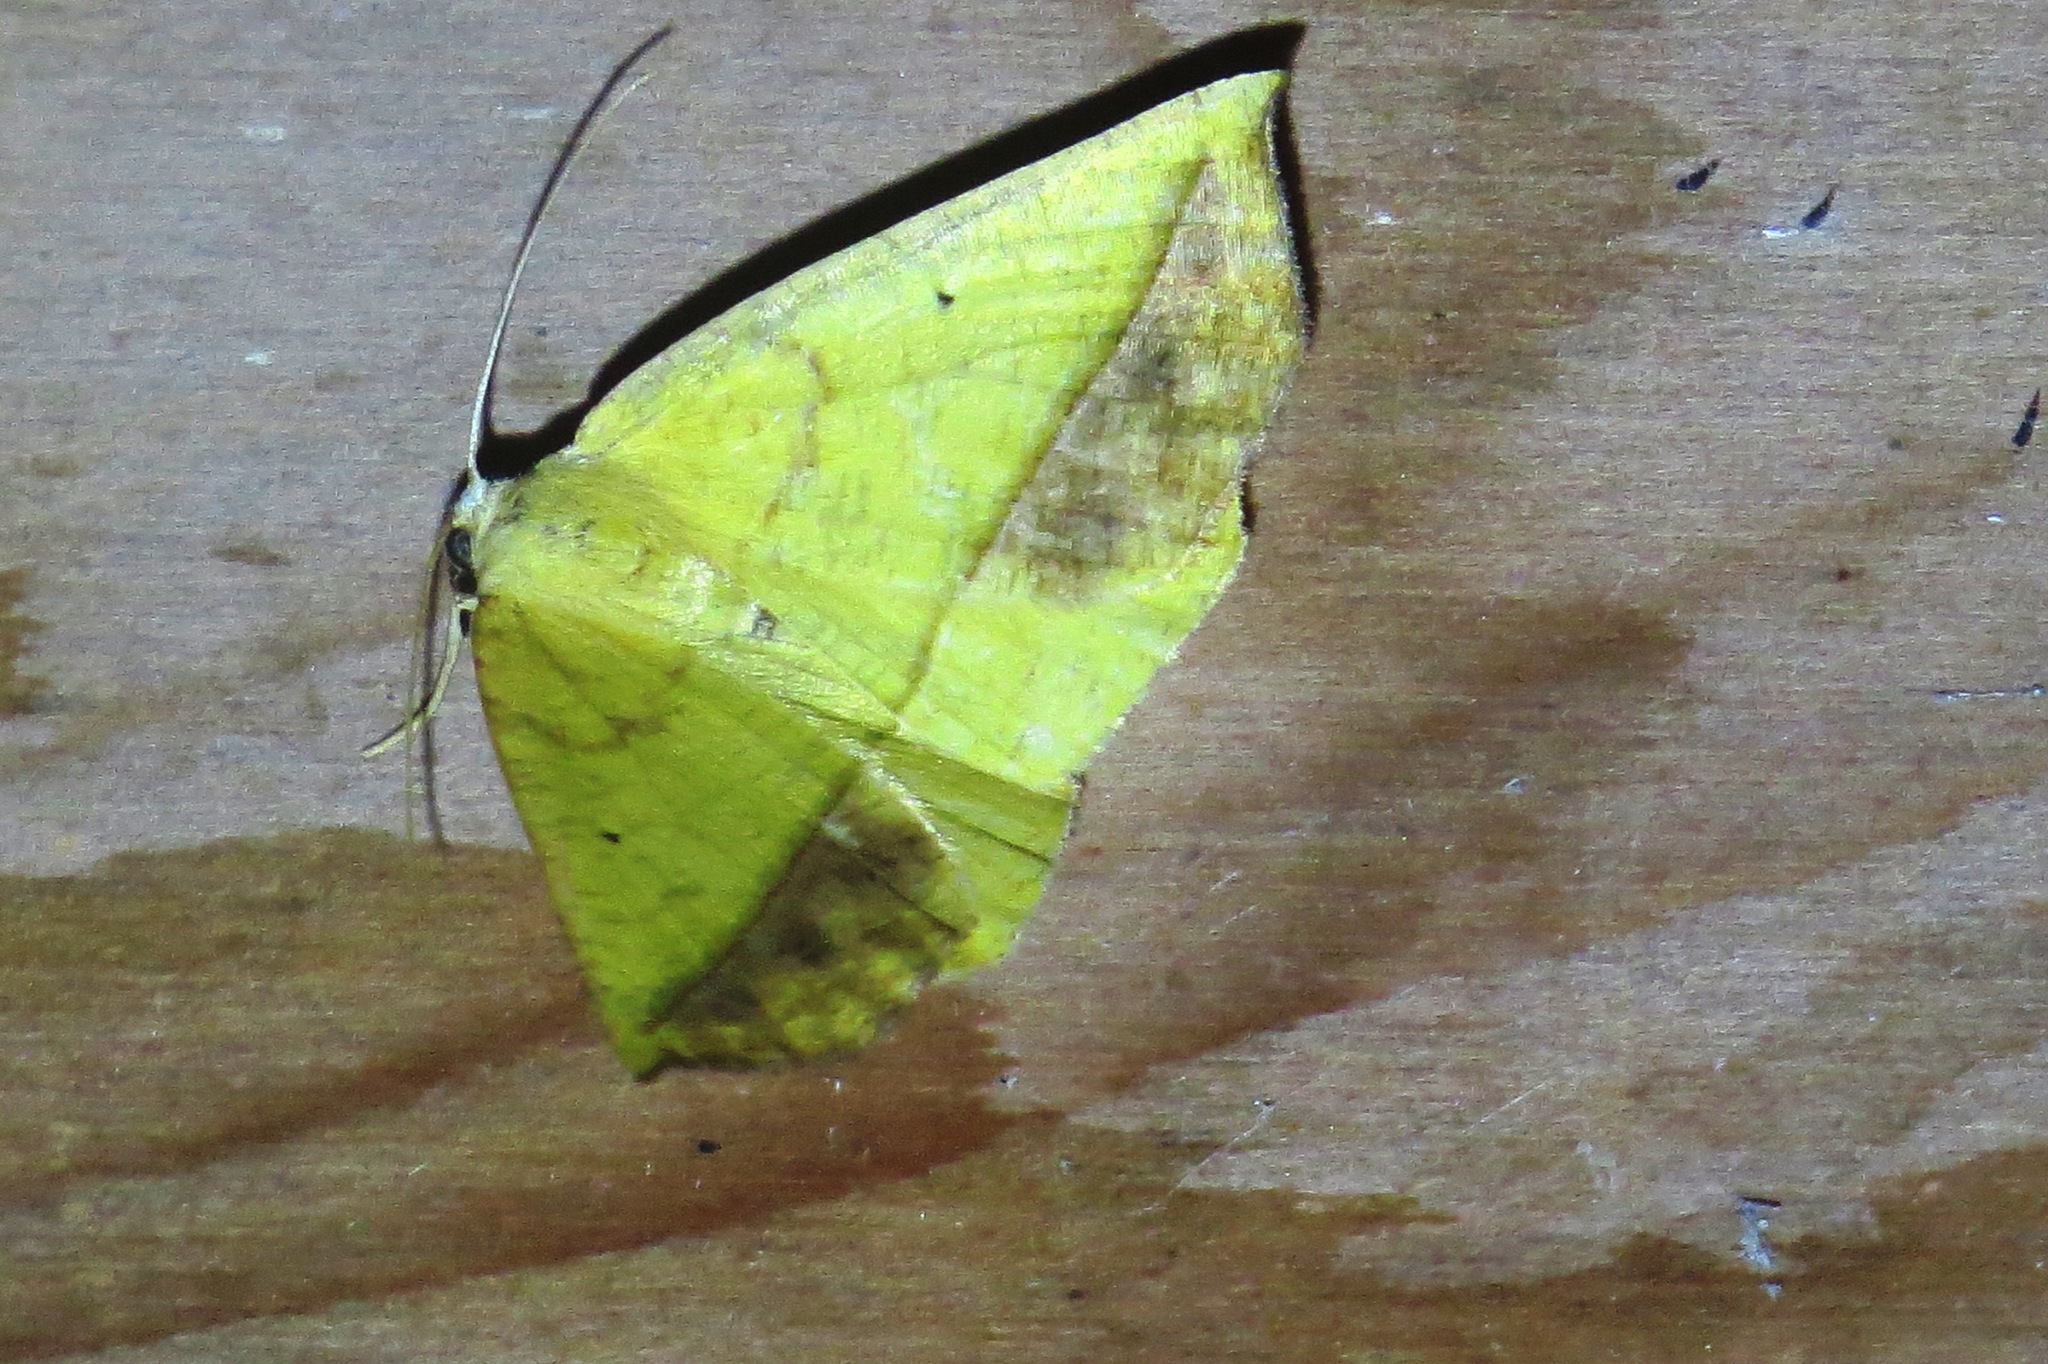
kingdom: Animalia
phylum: Arthropoda
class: Insecta
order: Lepidoptera
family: Geometridae
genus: Eusarca
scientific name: Eusarca fundaria
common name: Dark-edged eusarca moth
